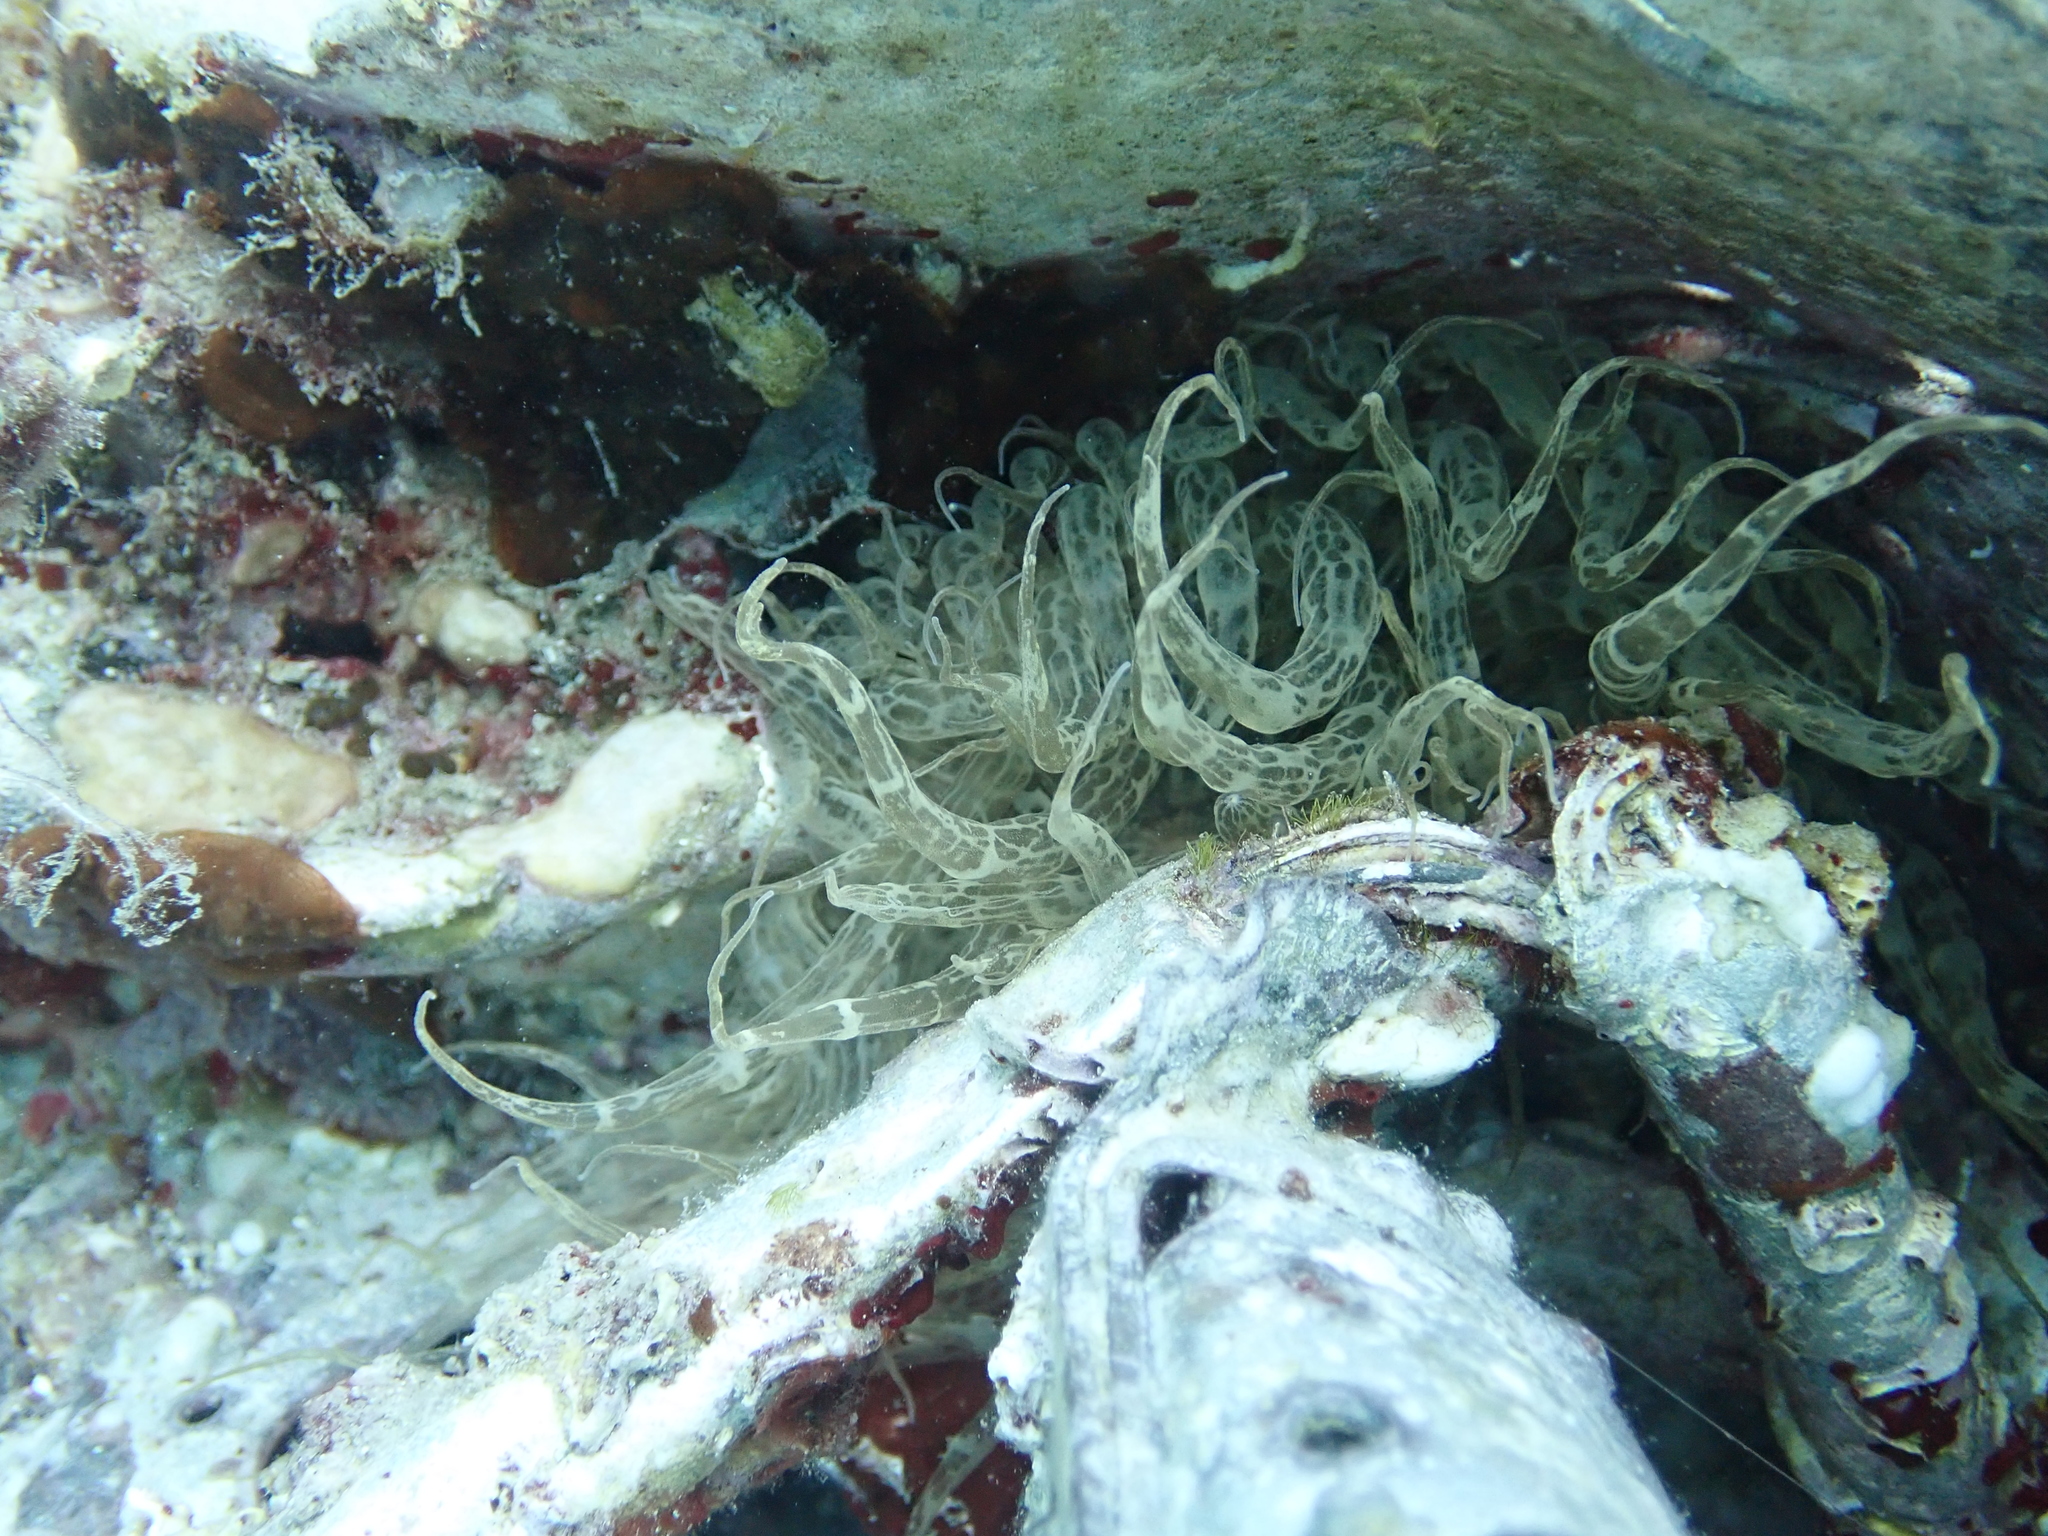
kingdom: Animalia
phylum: Cnidaria
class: Anthozoa
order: Actiniaria
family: Aiptasiidae
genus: Aiptasia
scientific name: Aiptasia mutabilis
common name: Trumpet anemone
